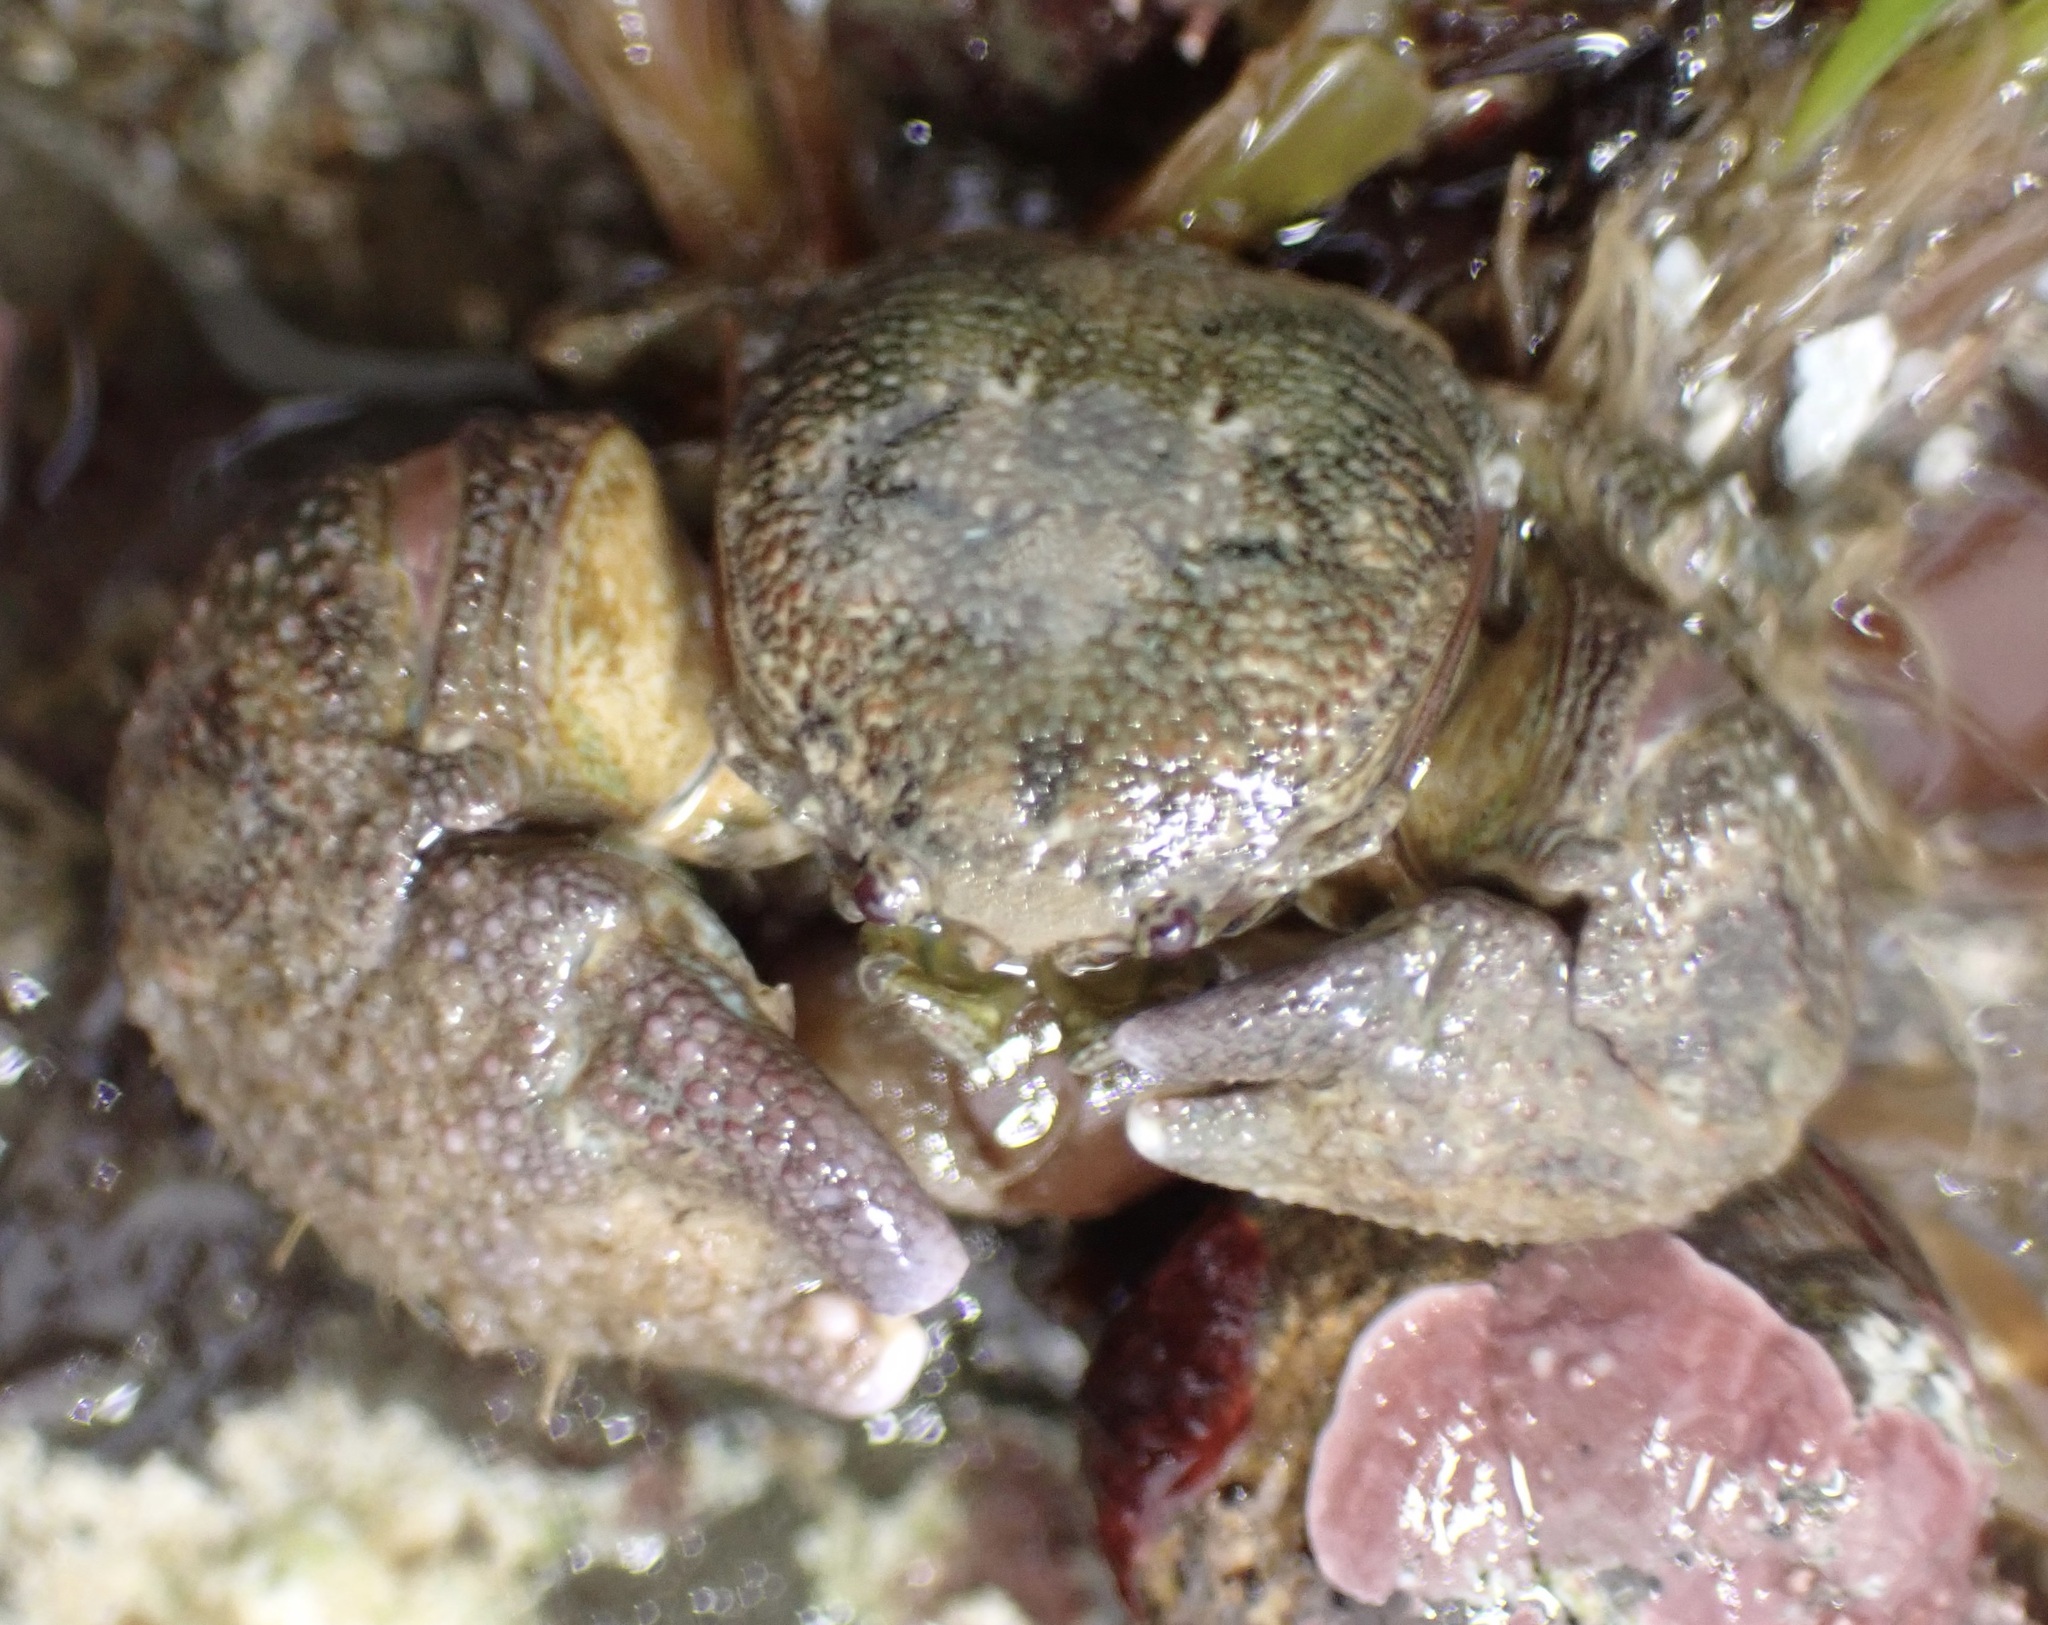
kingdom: Animalia
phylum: Arthropoda
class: Malacostraca
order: Decapoda
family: Porcellanidae
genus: Pachycheles
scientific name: Pachycheles rudis
